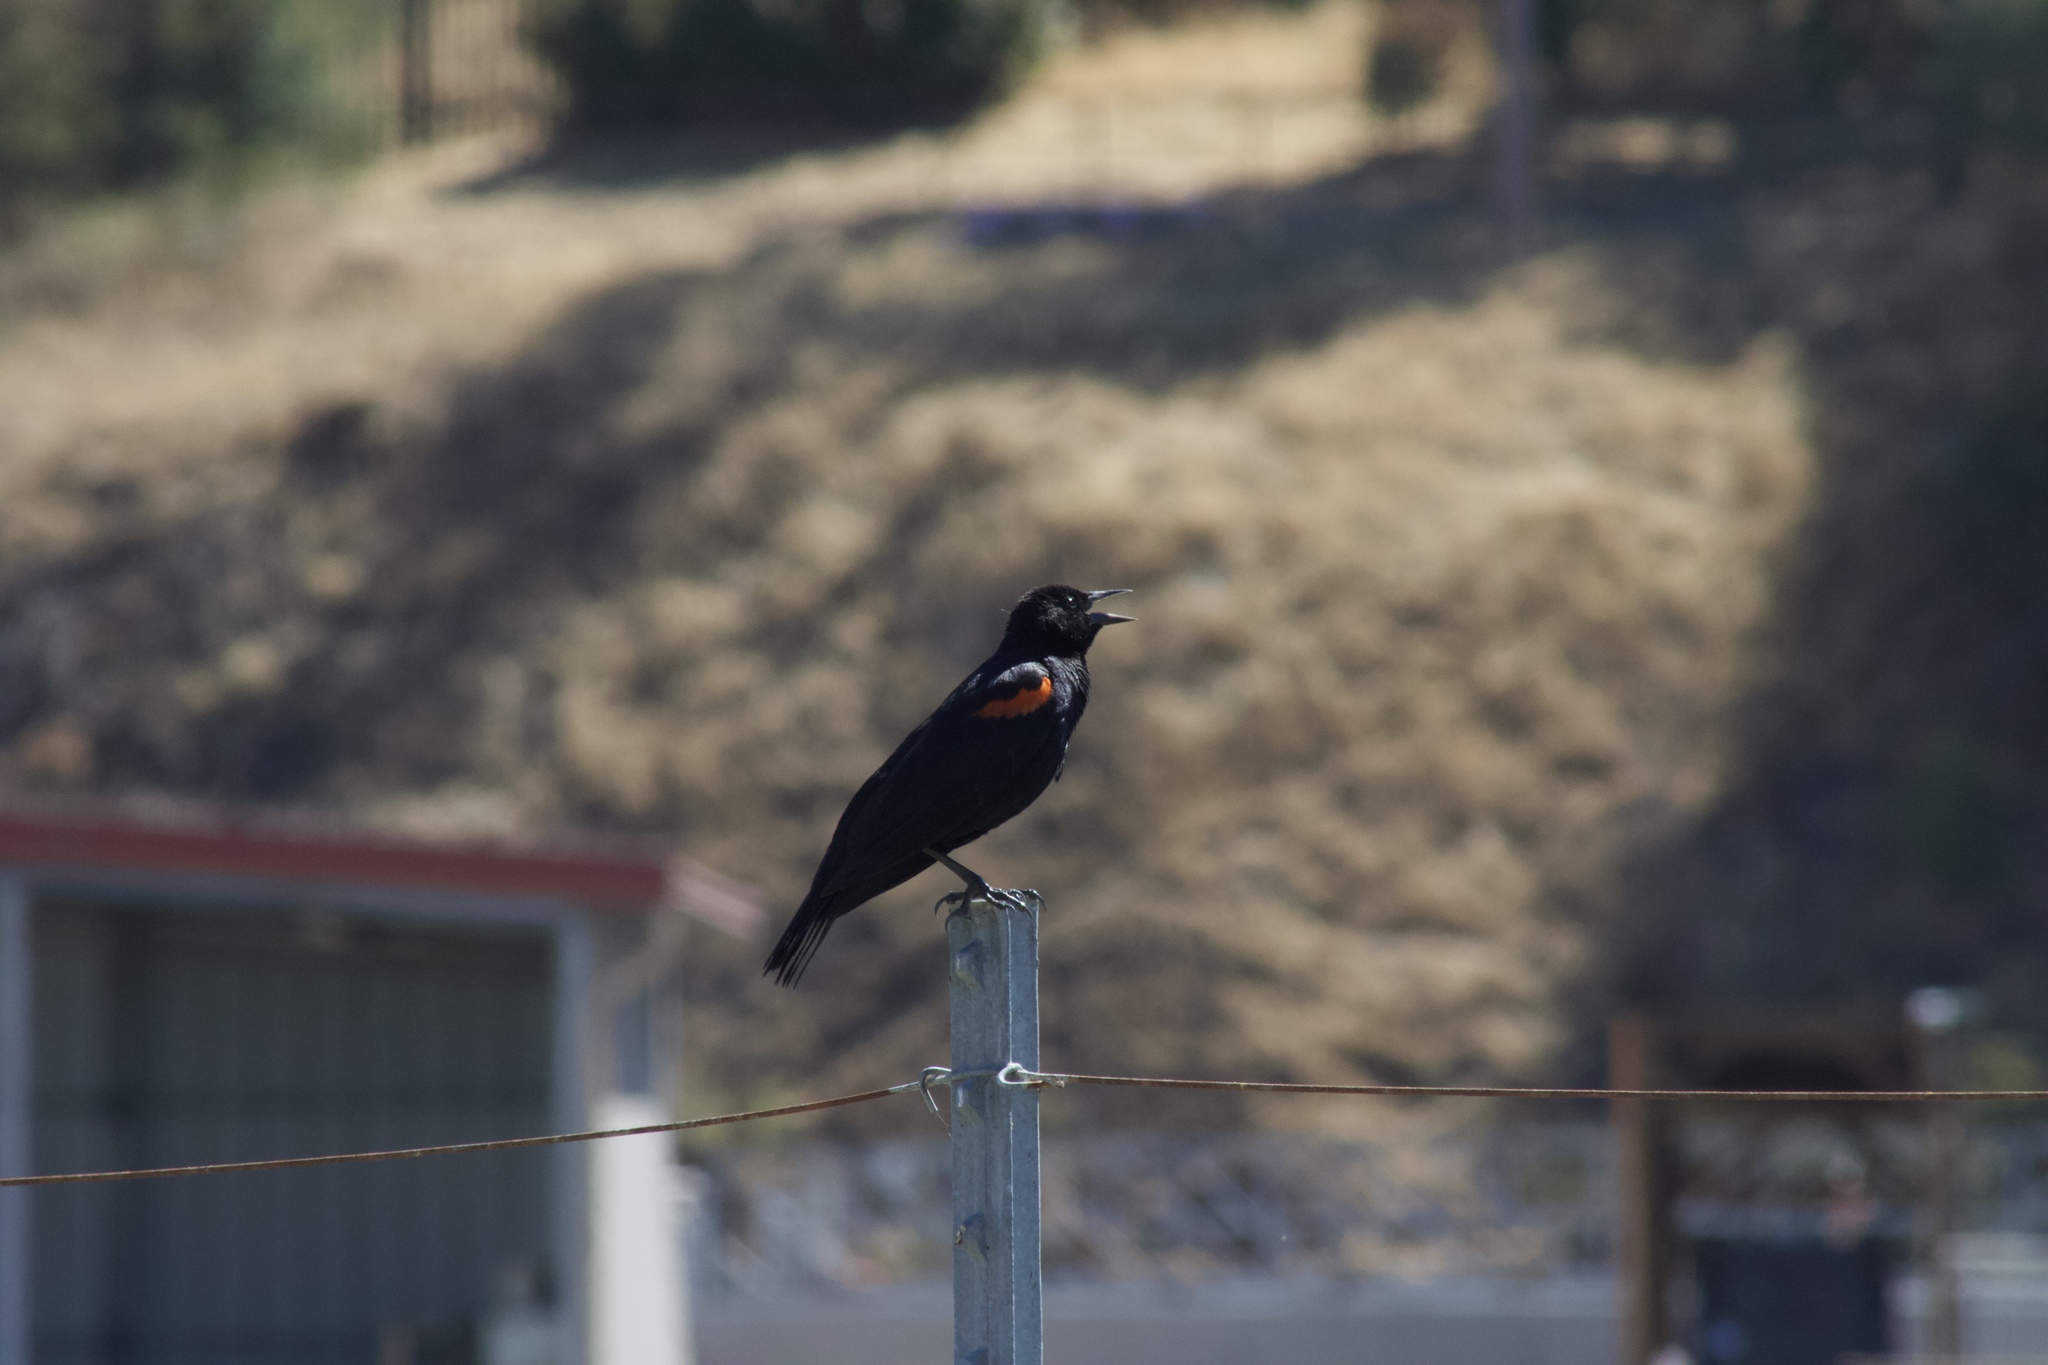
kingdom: Animalia
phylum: Chordata
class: Aves
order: Passeriformes
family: Icteridae
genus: Agelaius
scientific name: Agelaius phoeniceus
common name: Red-winged blackbird
